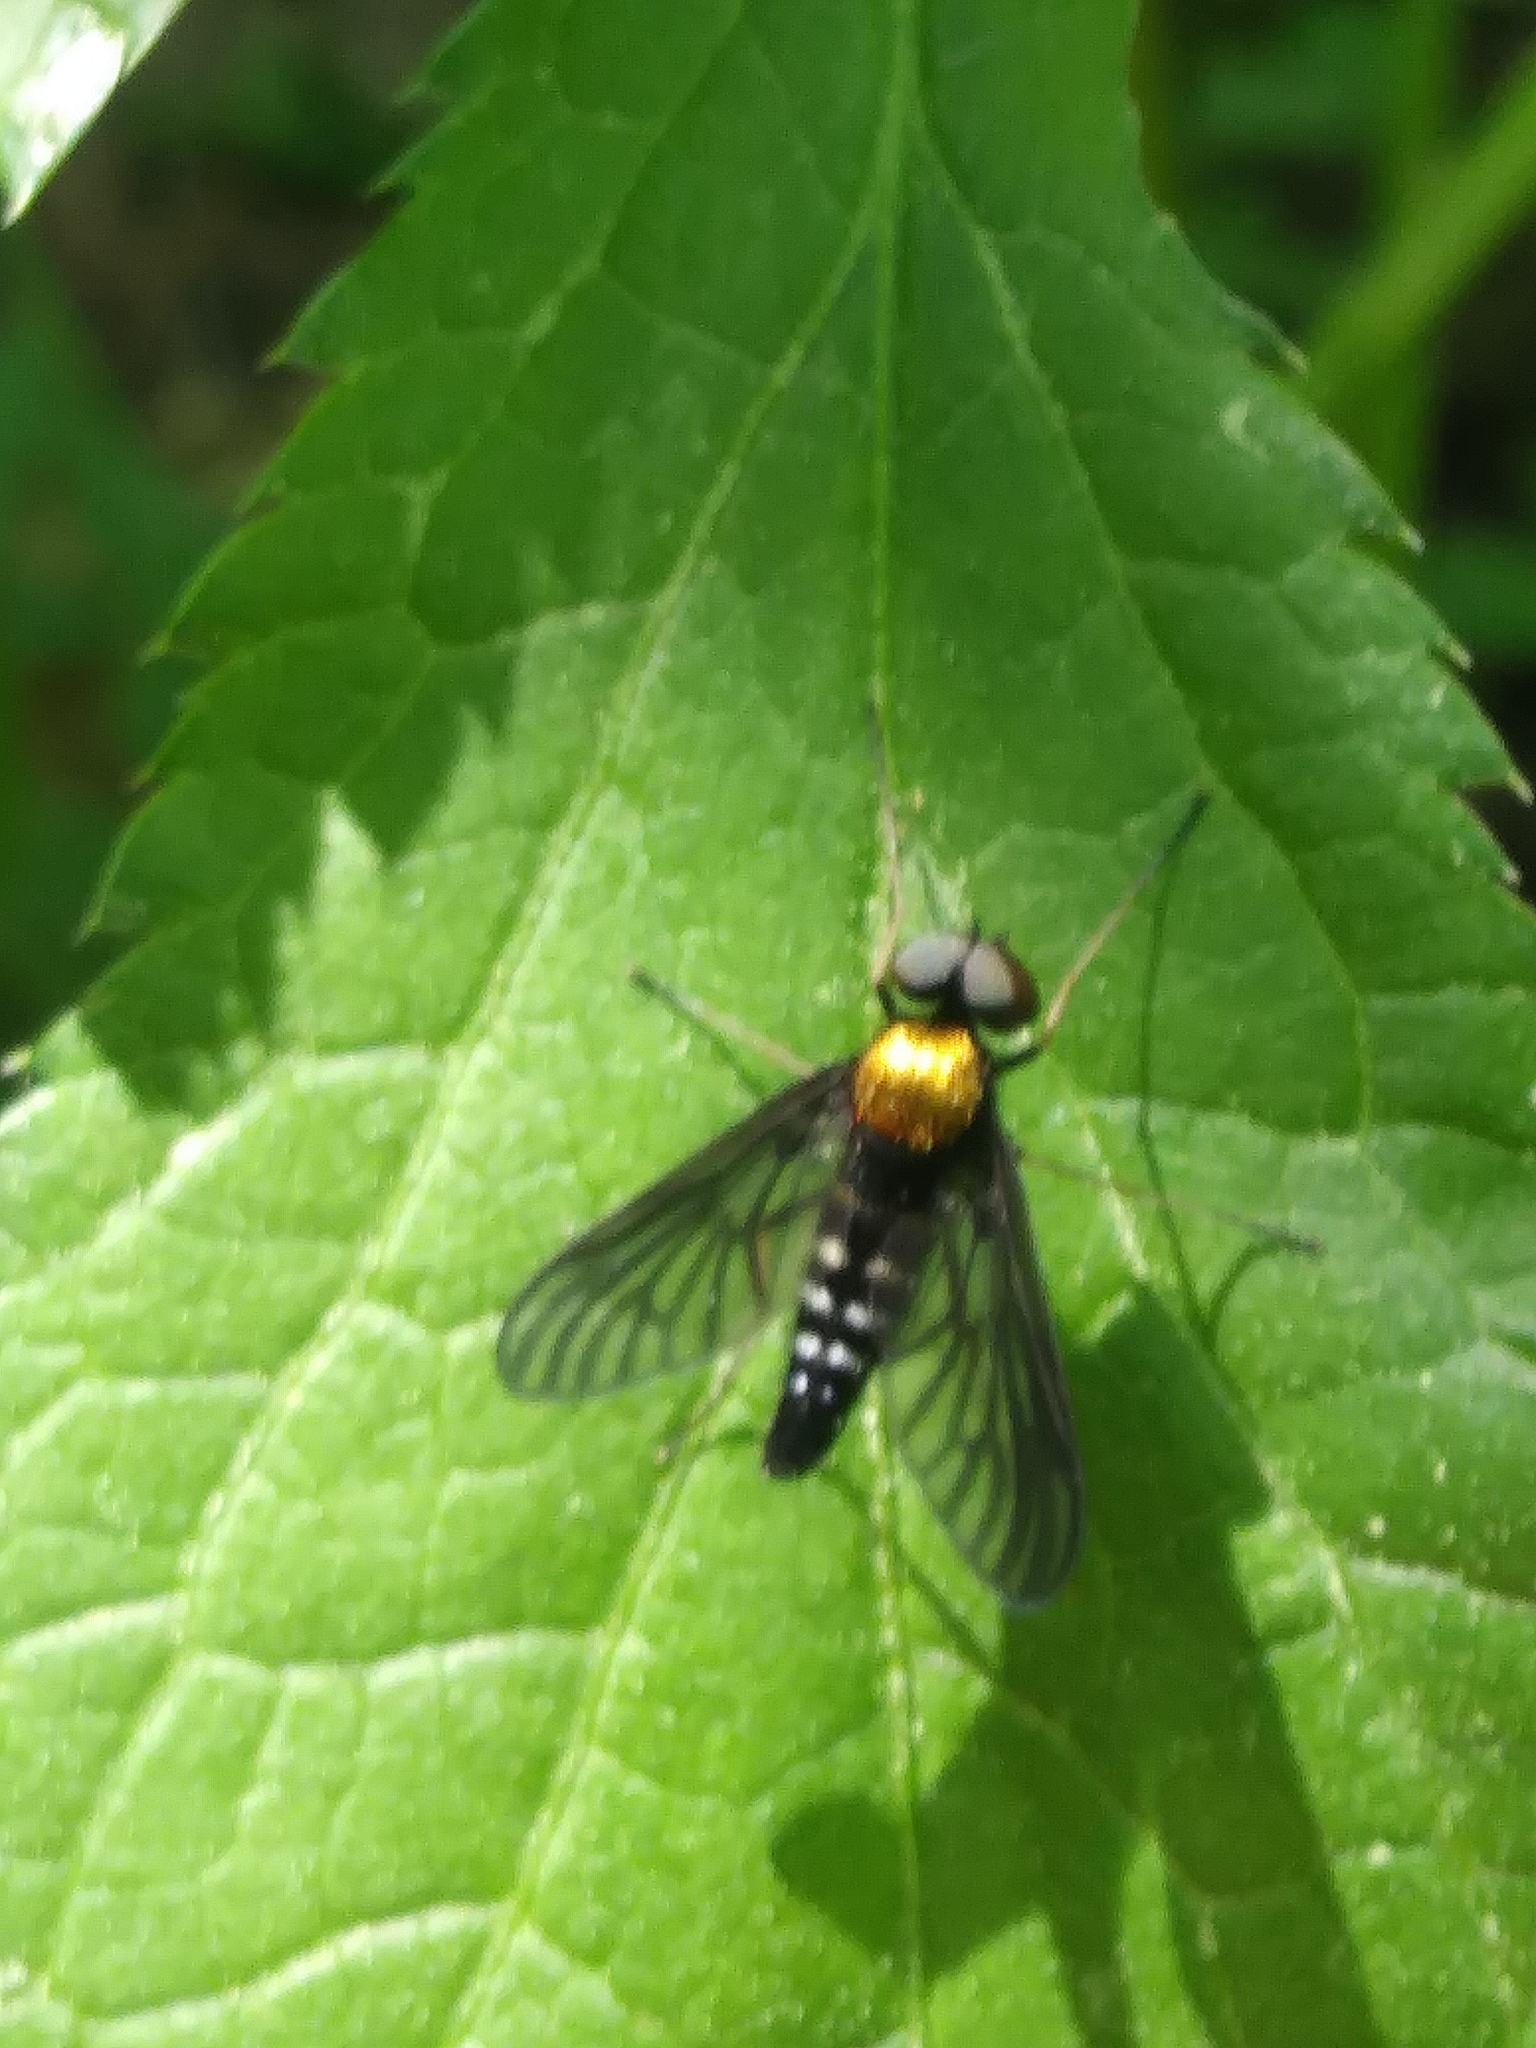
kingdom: Animalia
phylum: Arthropoda
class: Insecta
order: Diptera
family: Rhagionidae
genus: Chrysopilus
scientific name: Chrysopilus thoracicus
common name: Golden-backed snipe fly
